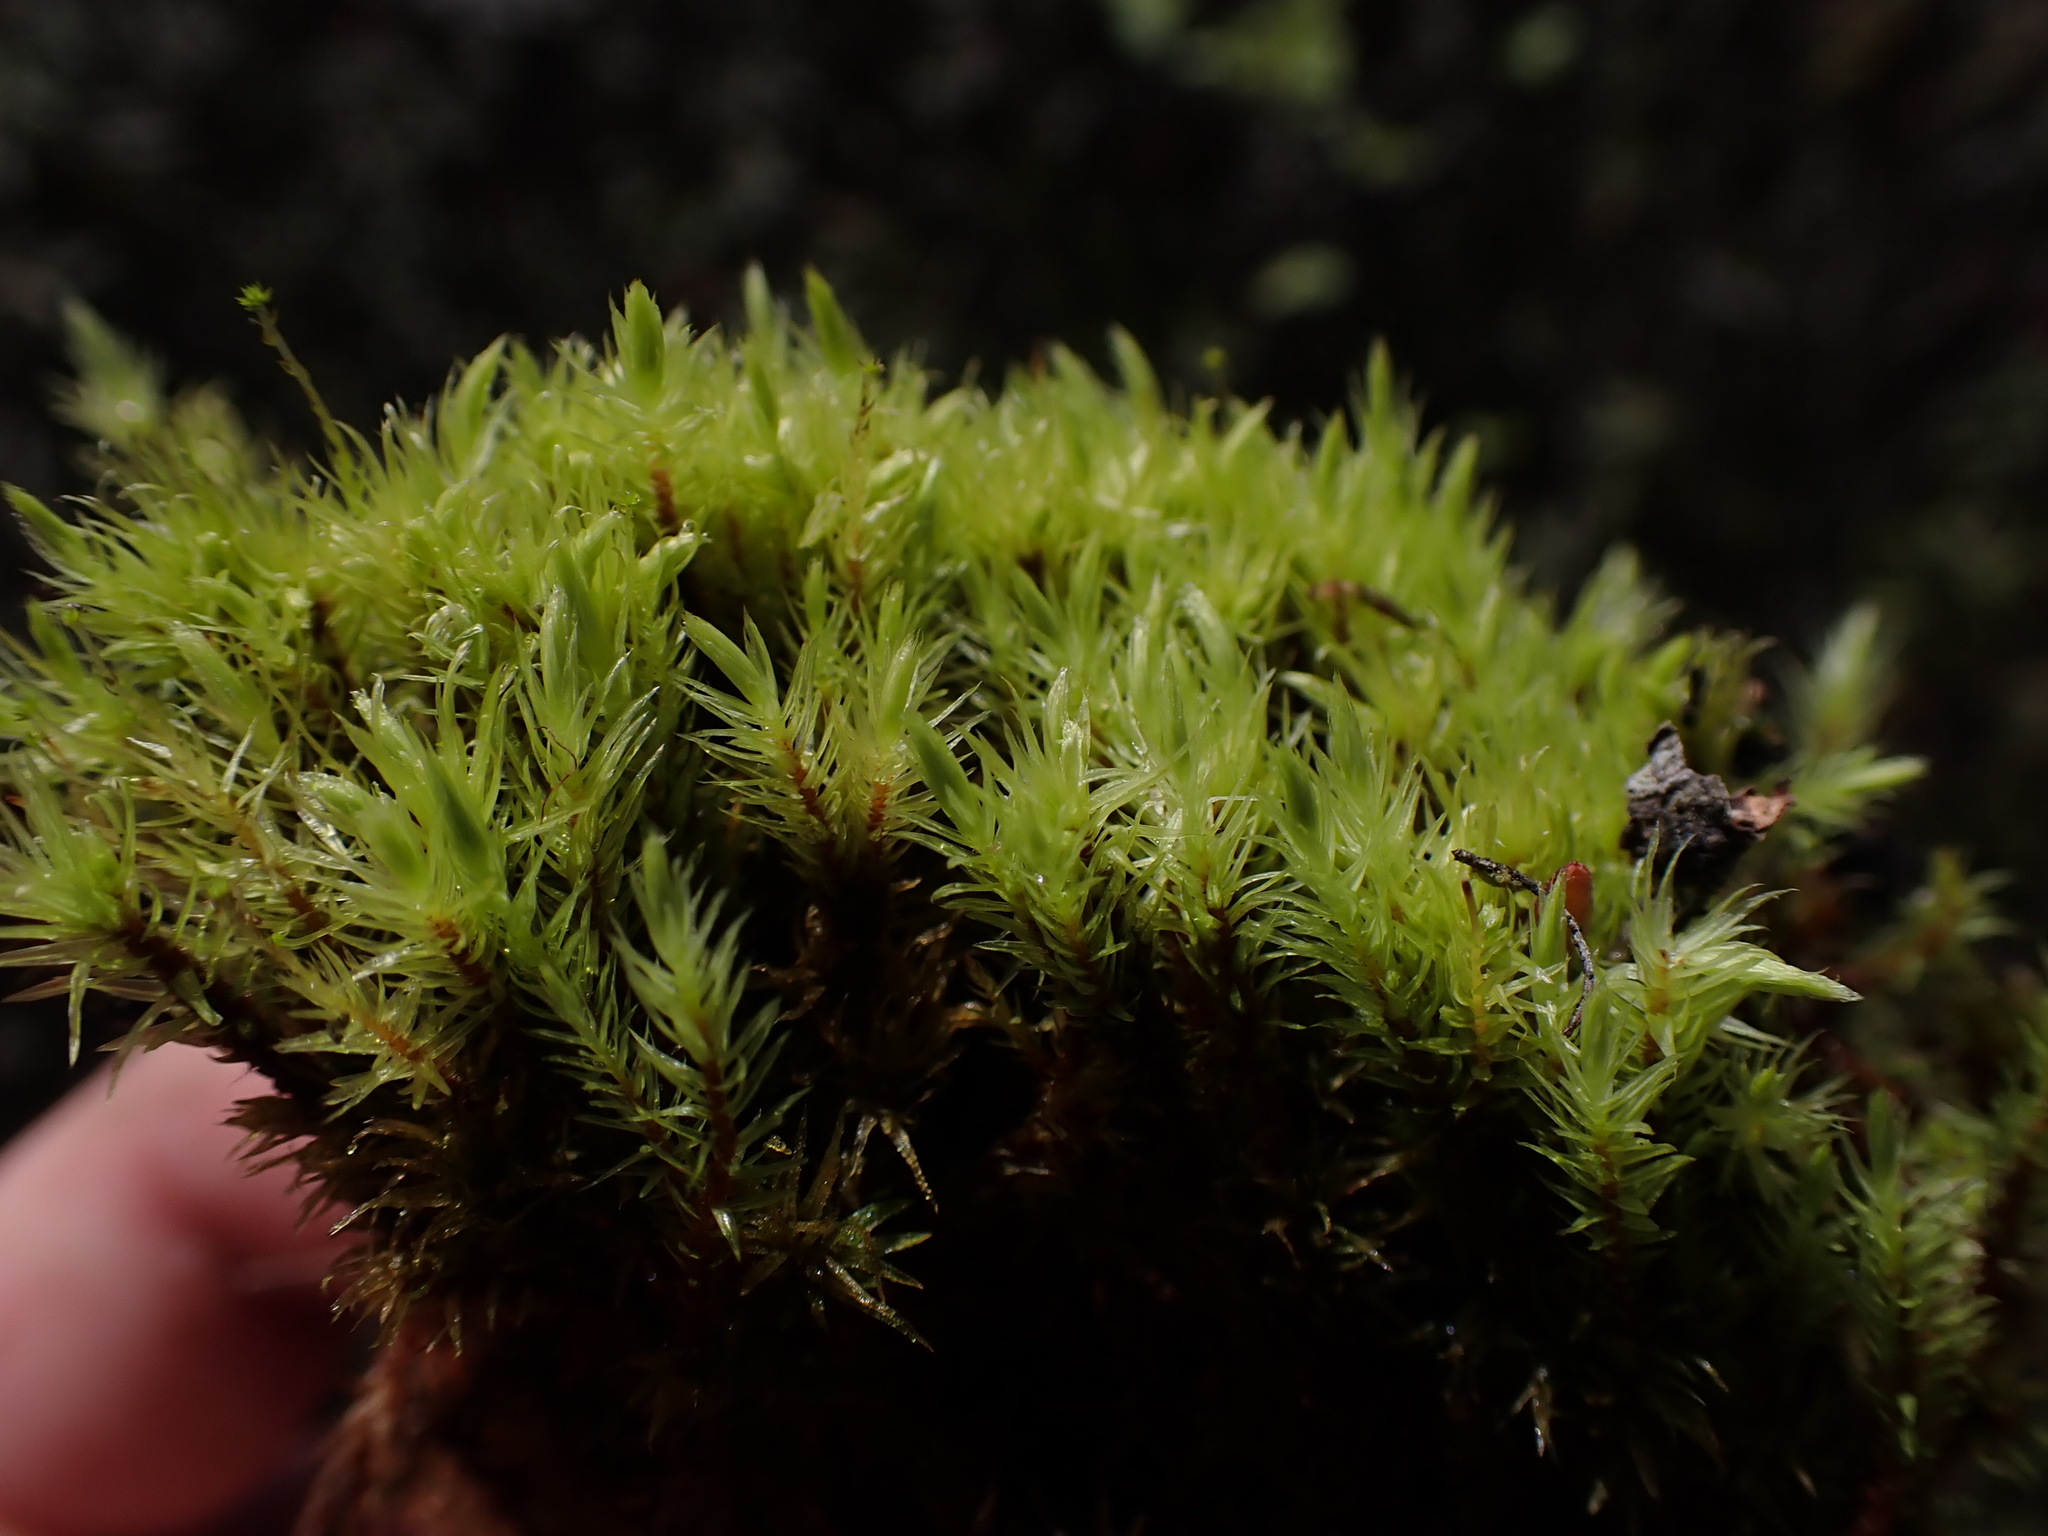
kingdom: Plantae
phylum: Bryophyta
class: Bryopsida
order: Aulacomniales
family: Aulacomniaceae
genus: Aulacomnium
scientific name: Aulacomnium palustre
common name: Bog groove-moss
